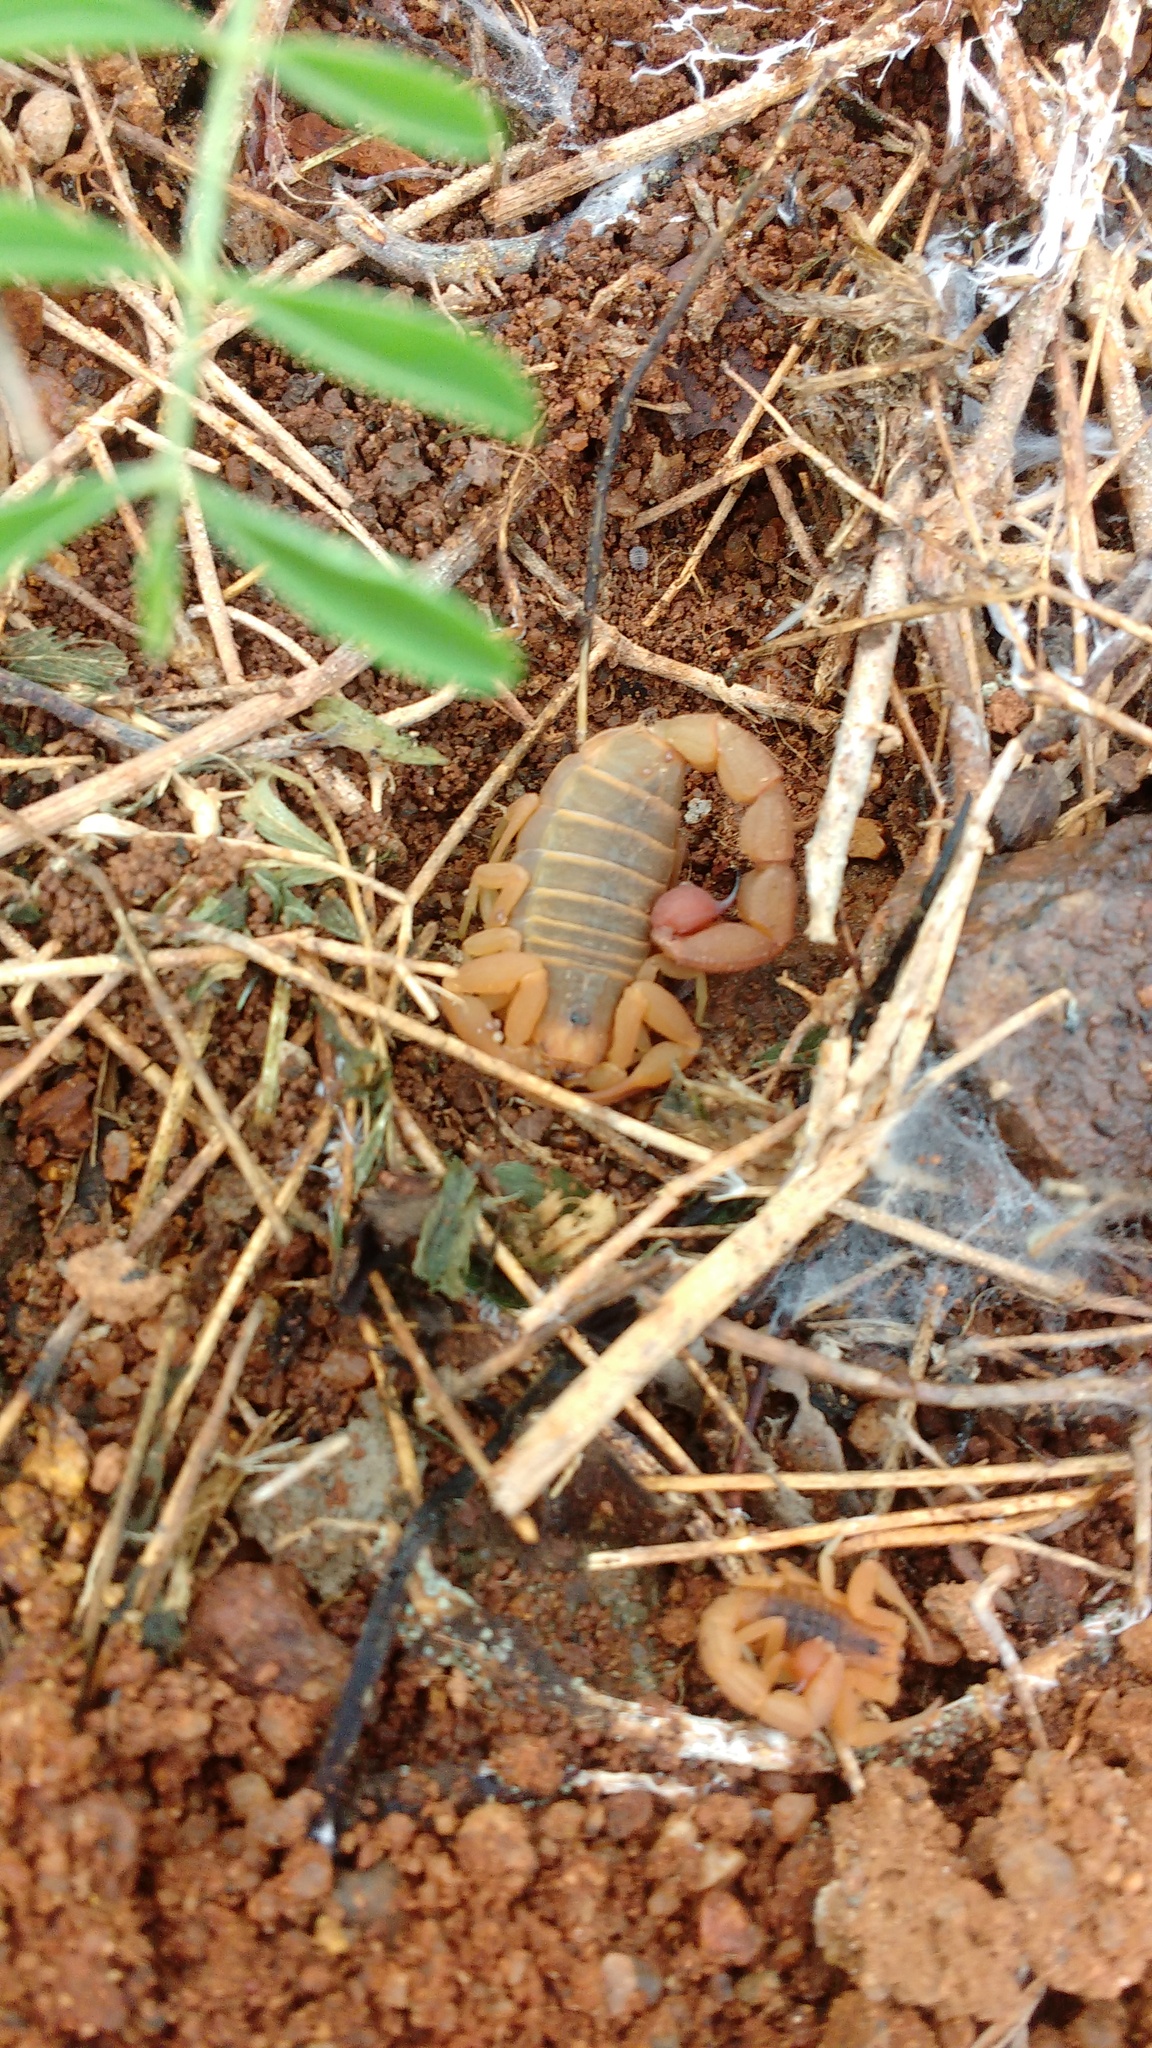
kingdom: Animalia
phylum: Arthropoda
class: Arachnida
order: Scorpiones
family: Buthidae
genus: Hottentotta
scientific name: Hottentotta rugiscutis
